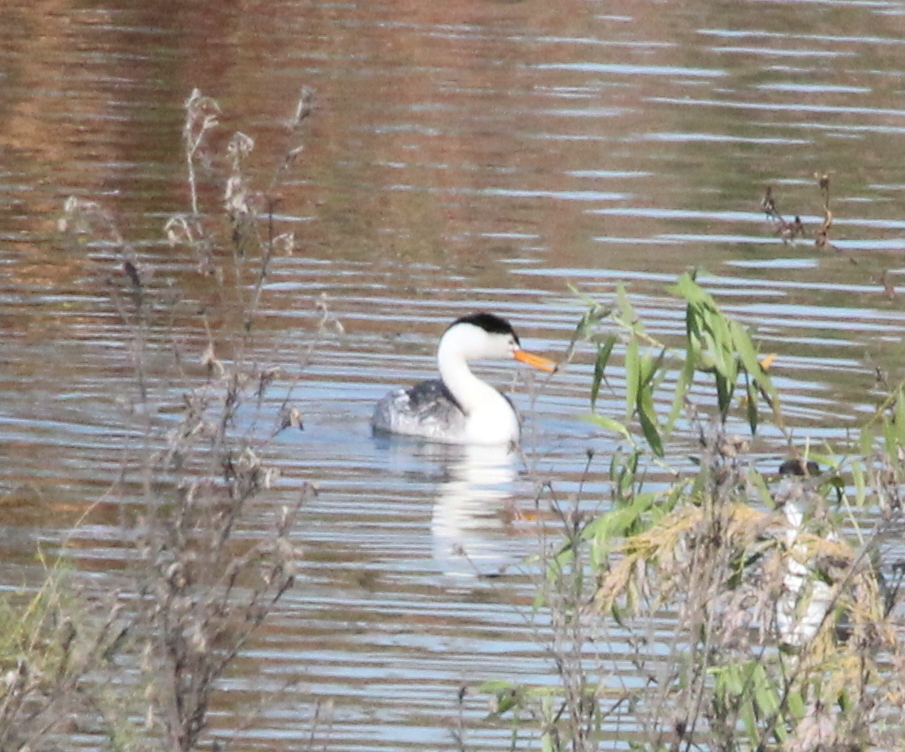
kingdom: Animalia
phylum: Chordata
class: Aves
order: Podicipediformes
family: Podicipedidae
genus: Aechmophorus
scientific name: Aechmophorus clarkii
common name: Clark's grebe
